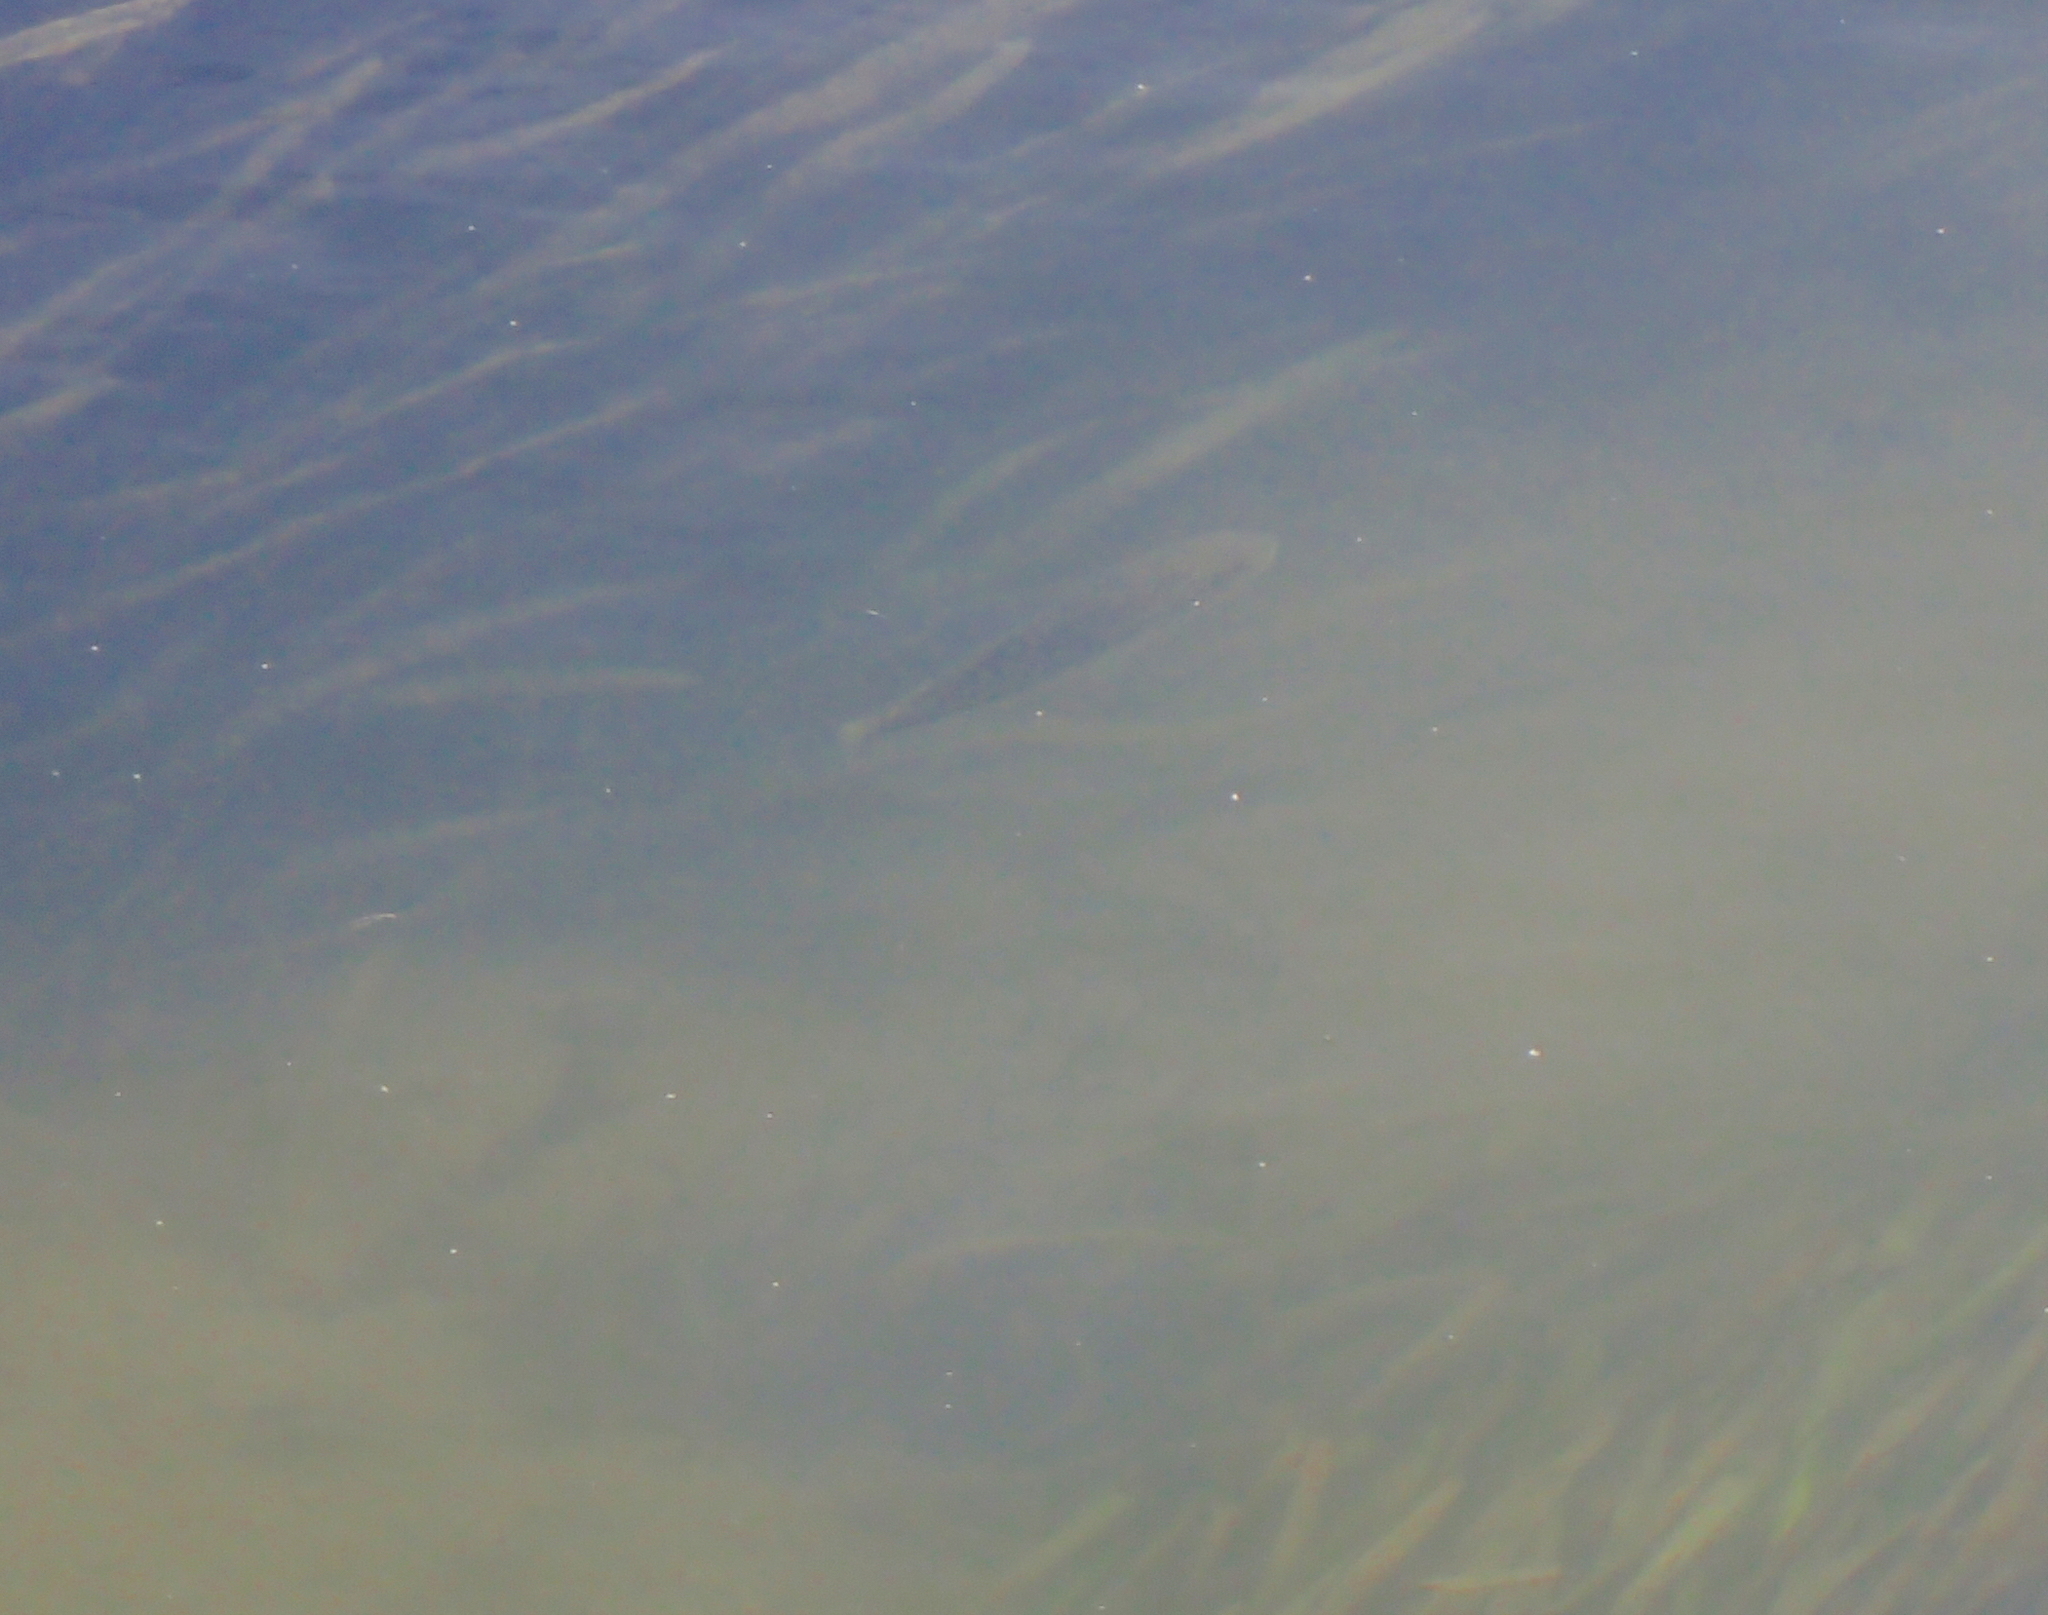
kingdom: Animalia
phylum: Chordata
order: Perciformes
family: Centrarchidae
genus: Micropterus
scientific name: Micropterus
